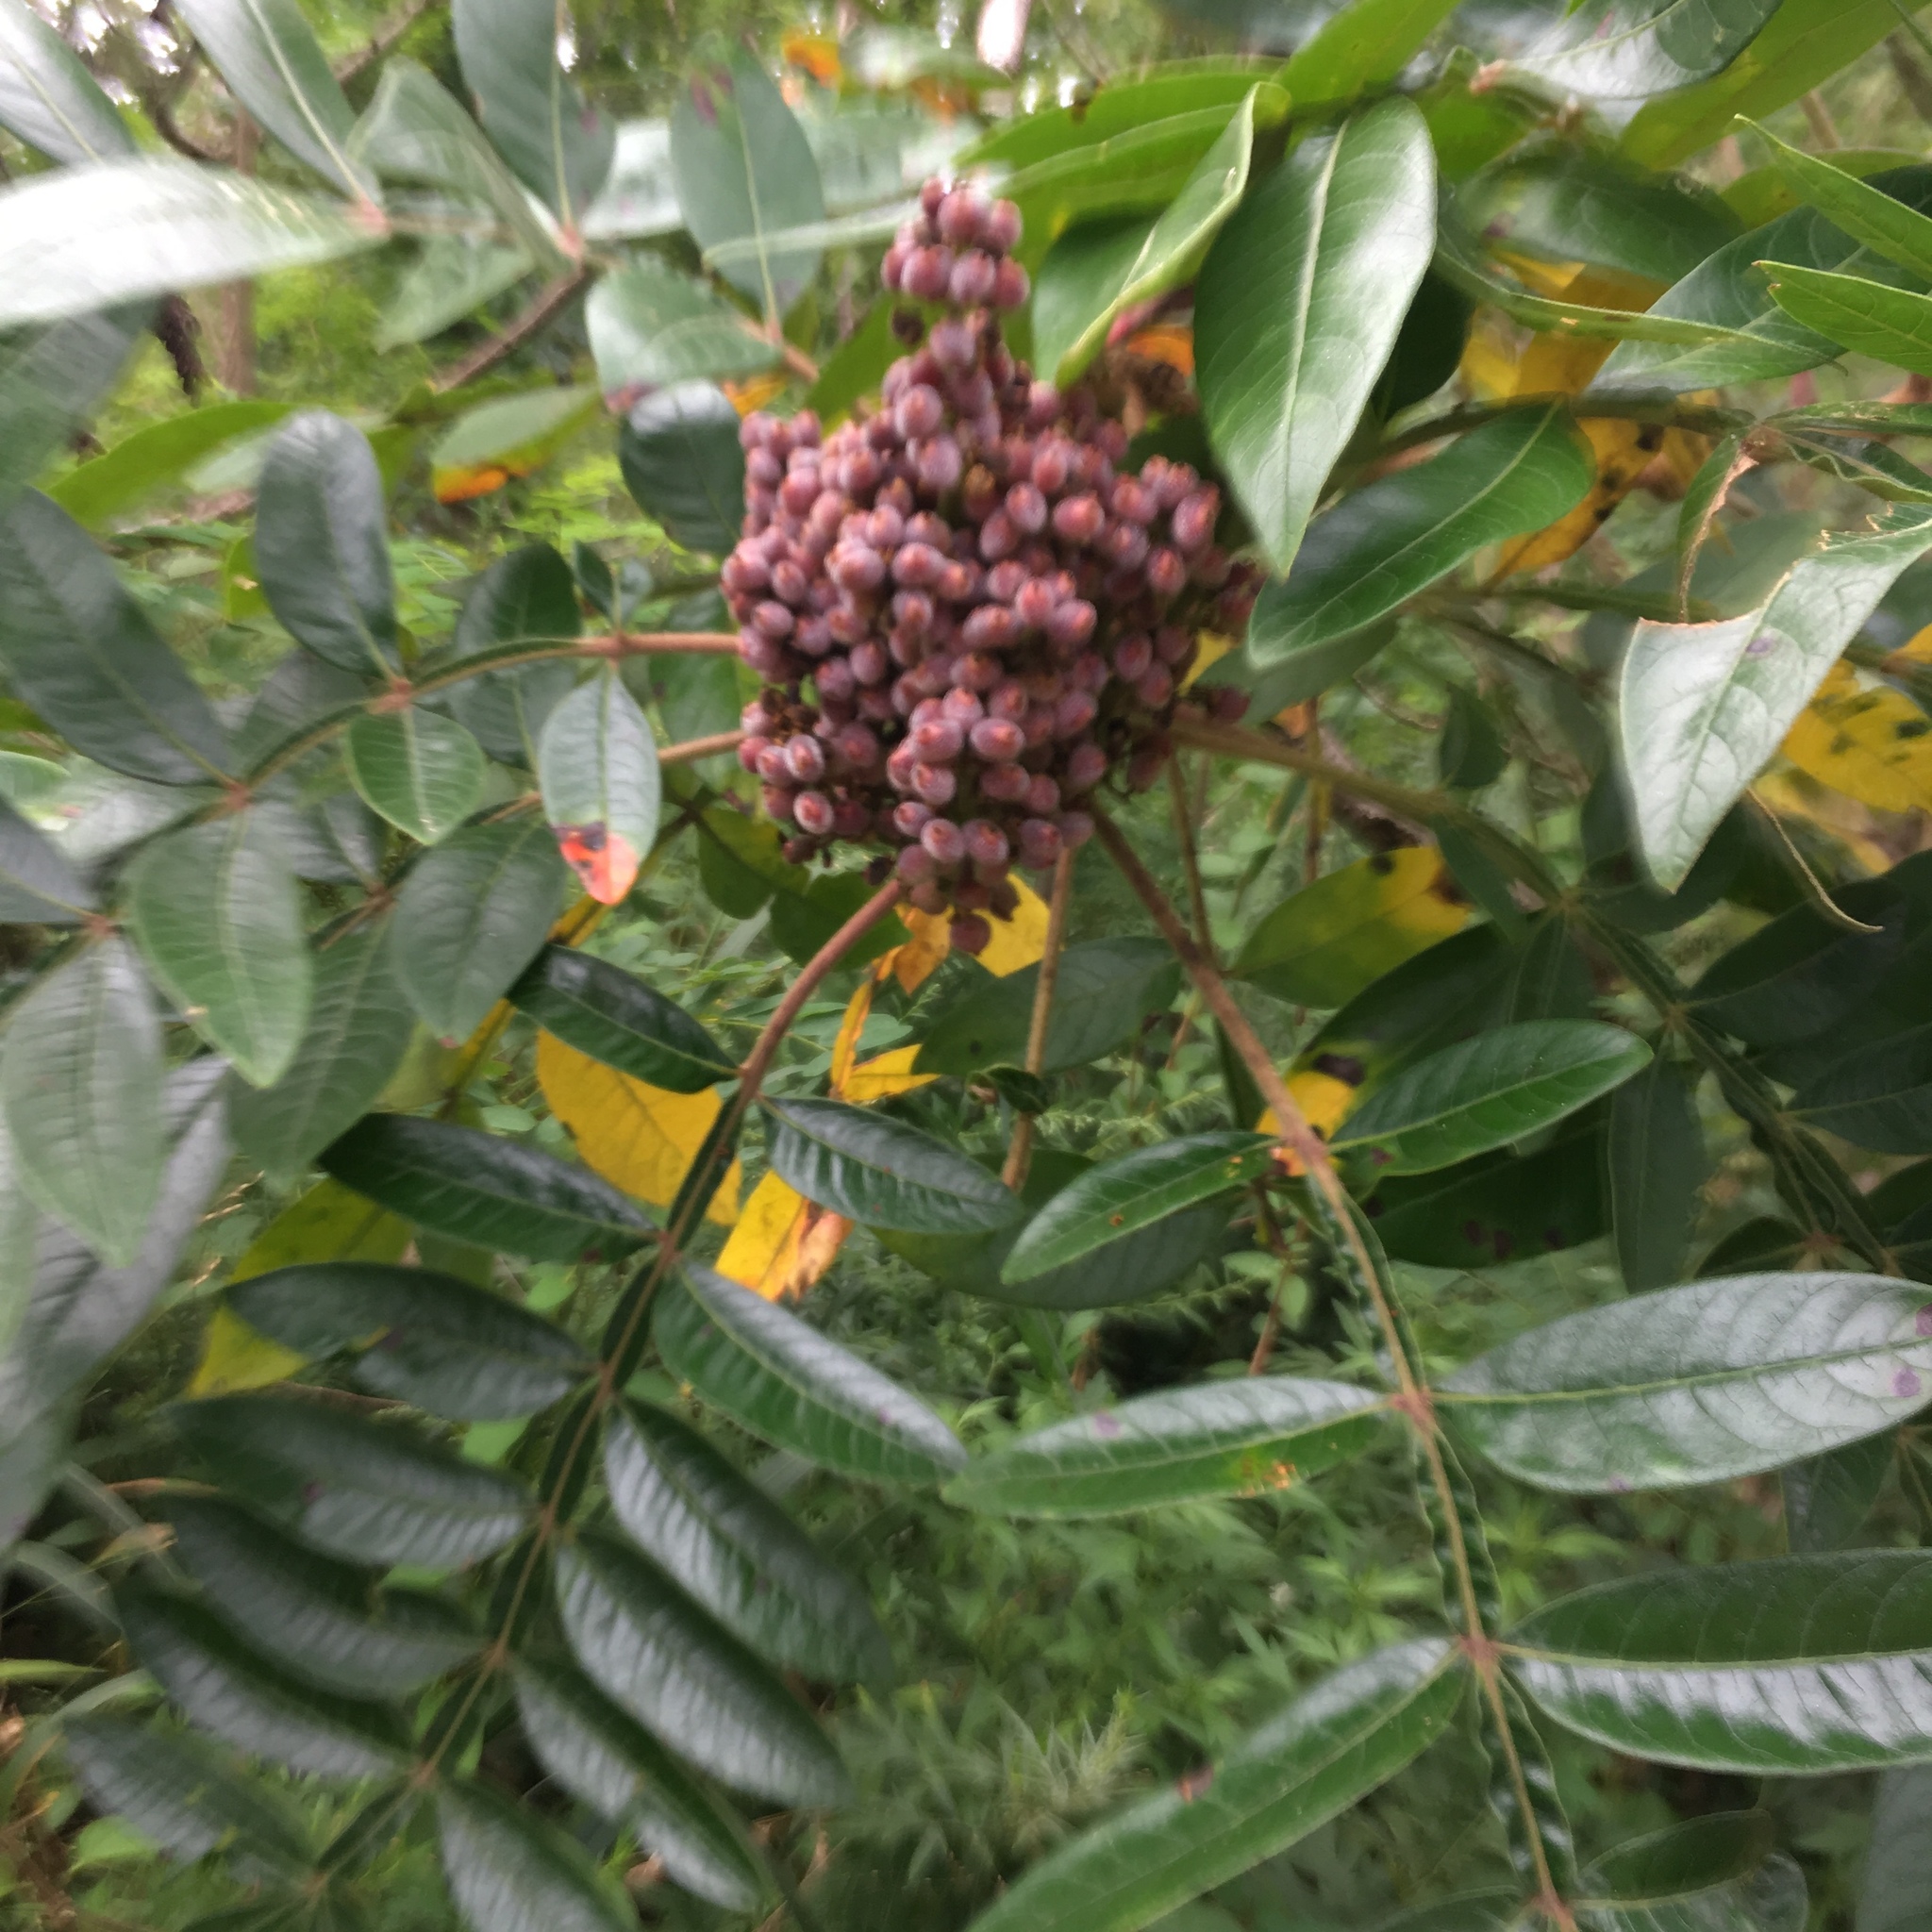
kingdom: Plantae
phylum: Tracheophyta
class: Magnoliopsida
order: Sapindales
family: Anacardiaceae
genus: Rhus
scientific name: Rhus copallina
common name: Shining sumac
